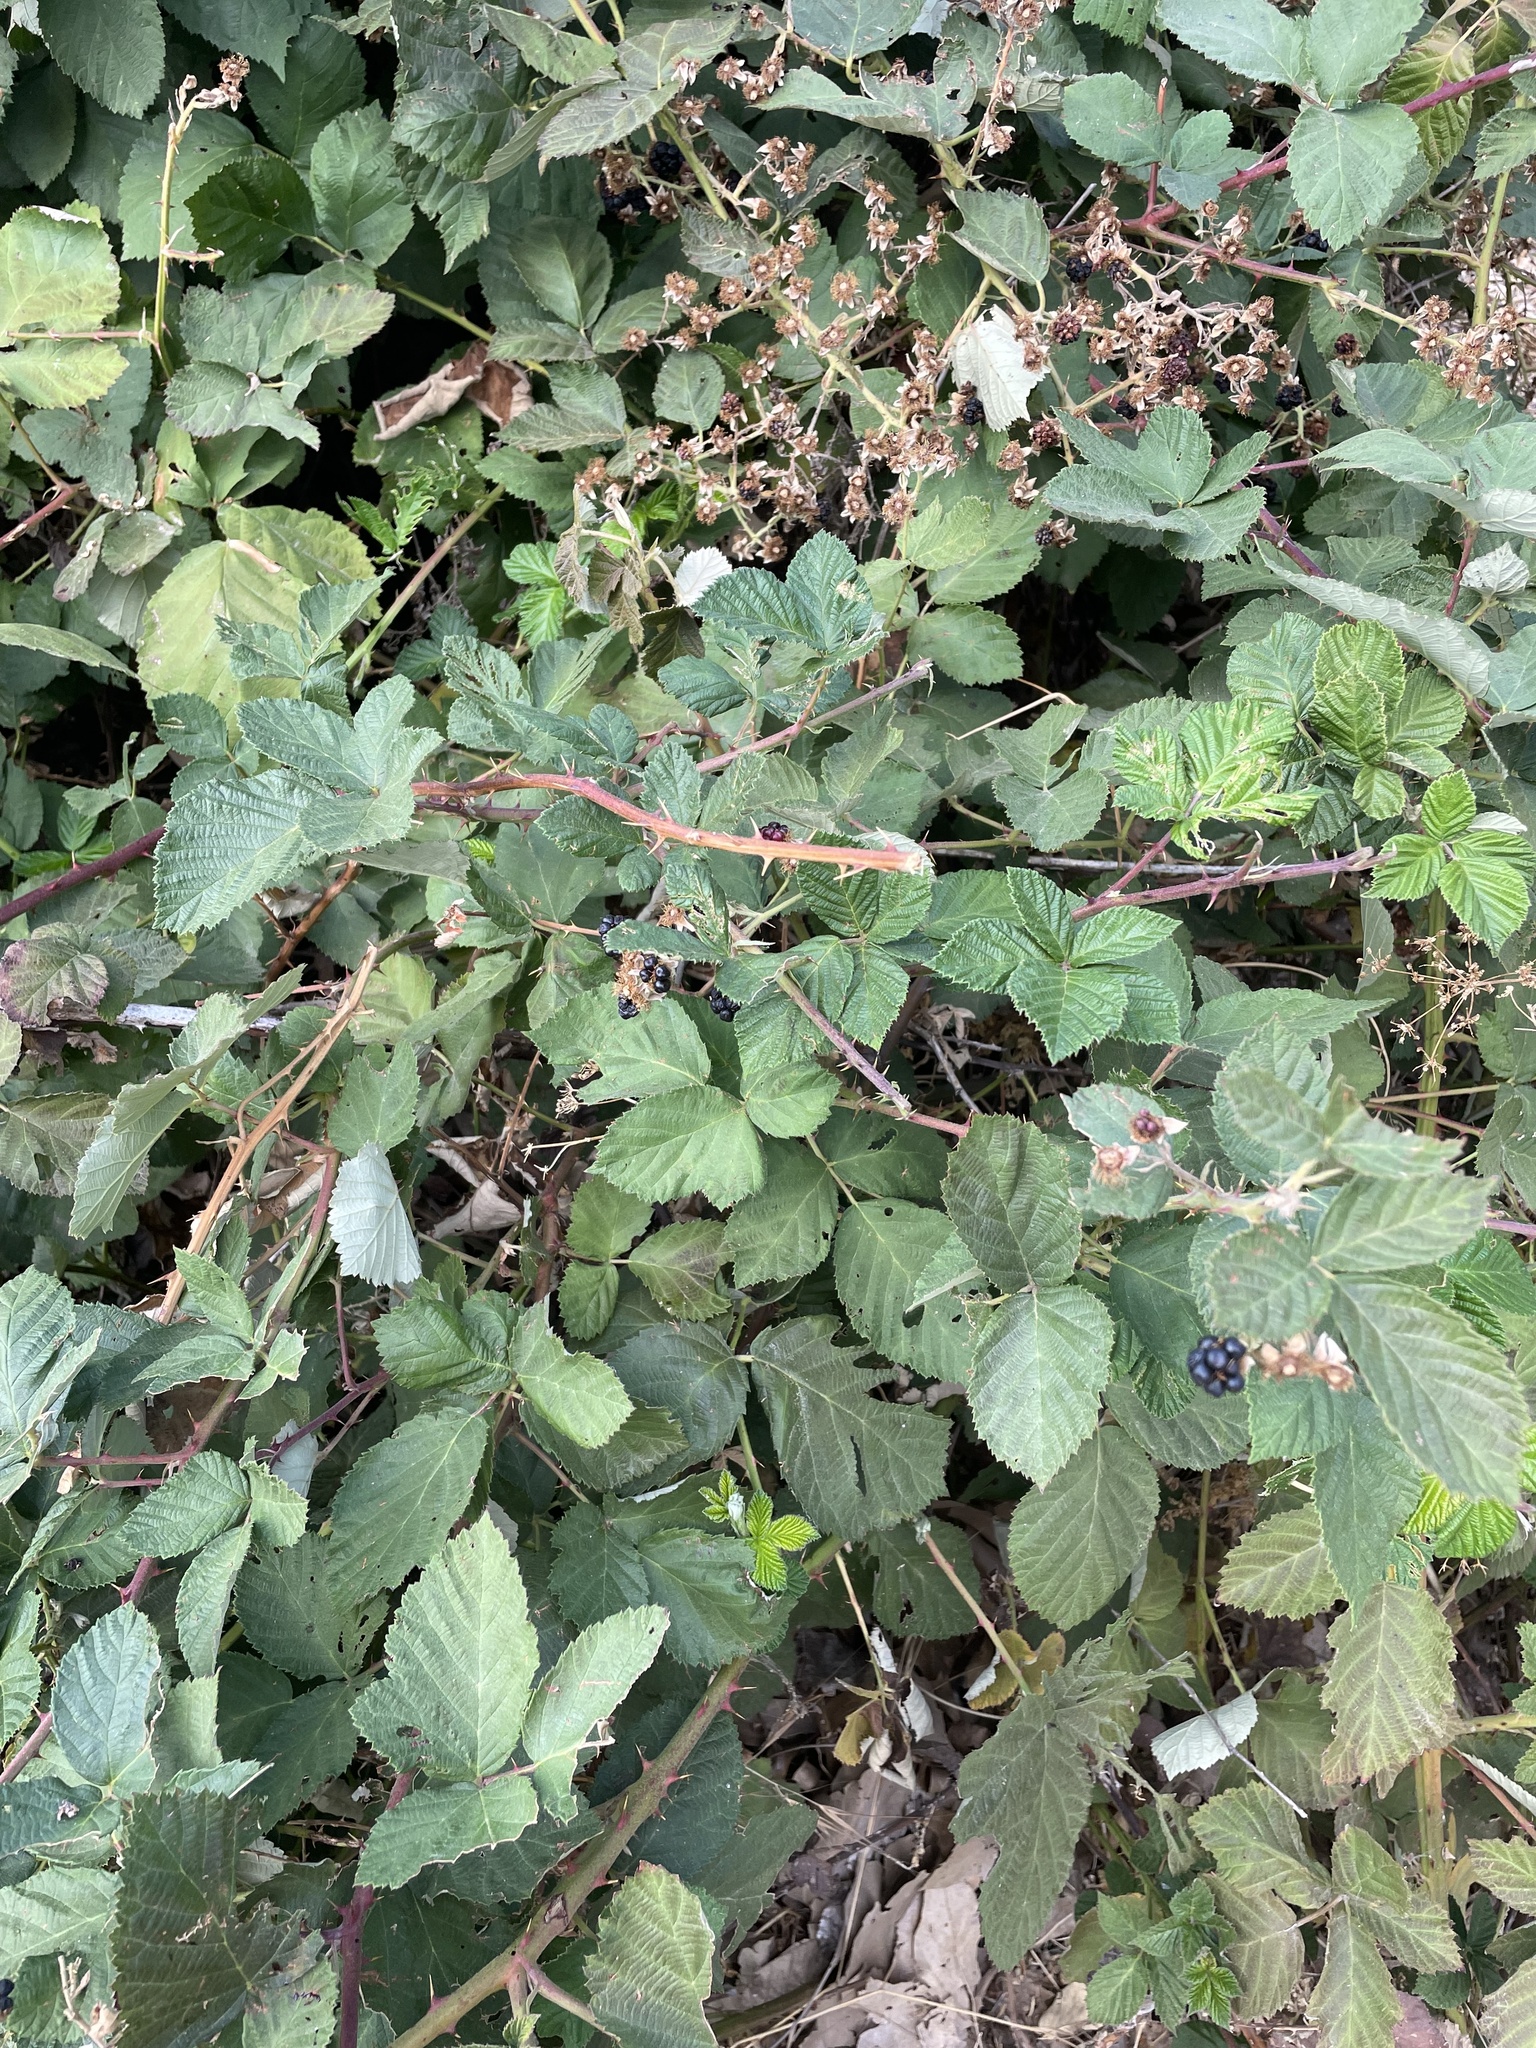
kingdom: Plantae
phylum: Tracheophyta
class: Magnoliopsida
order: Rosales
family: Rosaceae
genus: Rubus
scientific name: Rubus armeniacus
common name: Himalayan blackberry
